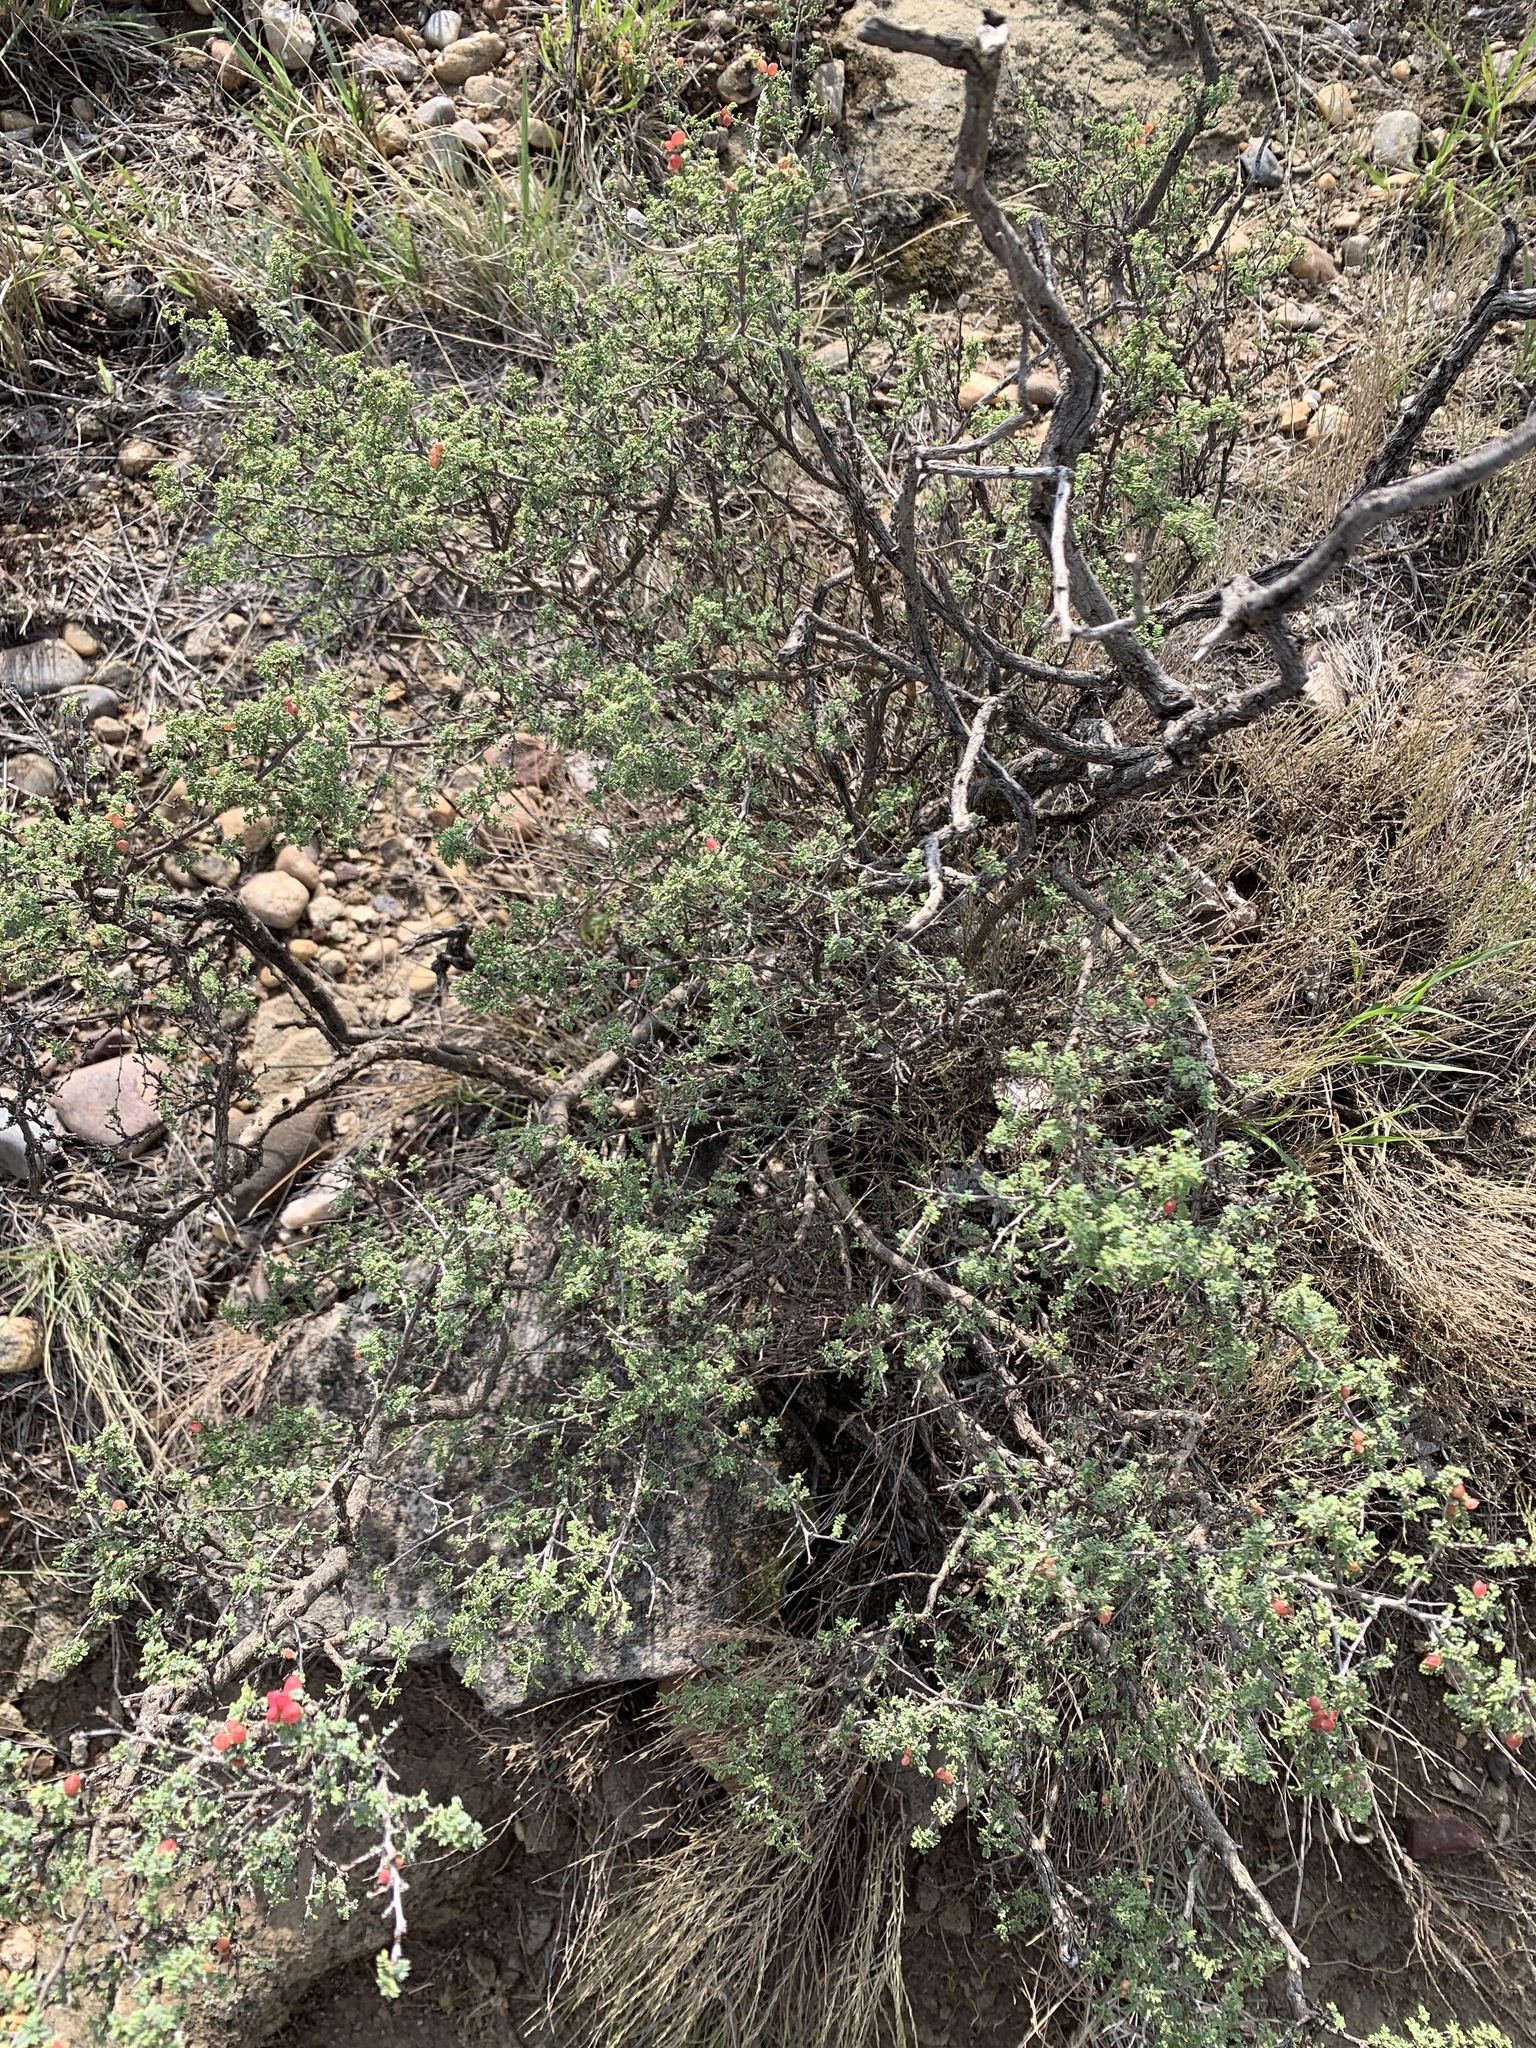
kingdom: Plantae
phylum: Tracheophyta
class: Magnoliopsida
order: Fabales
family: Fabaceae
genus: Dalea
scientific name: Dalea formosa
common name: Feather-plume dalea
